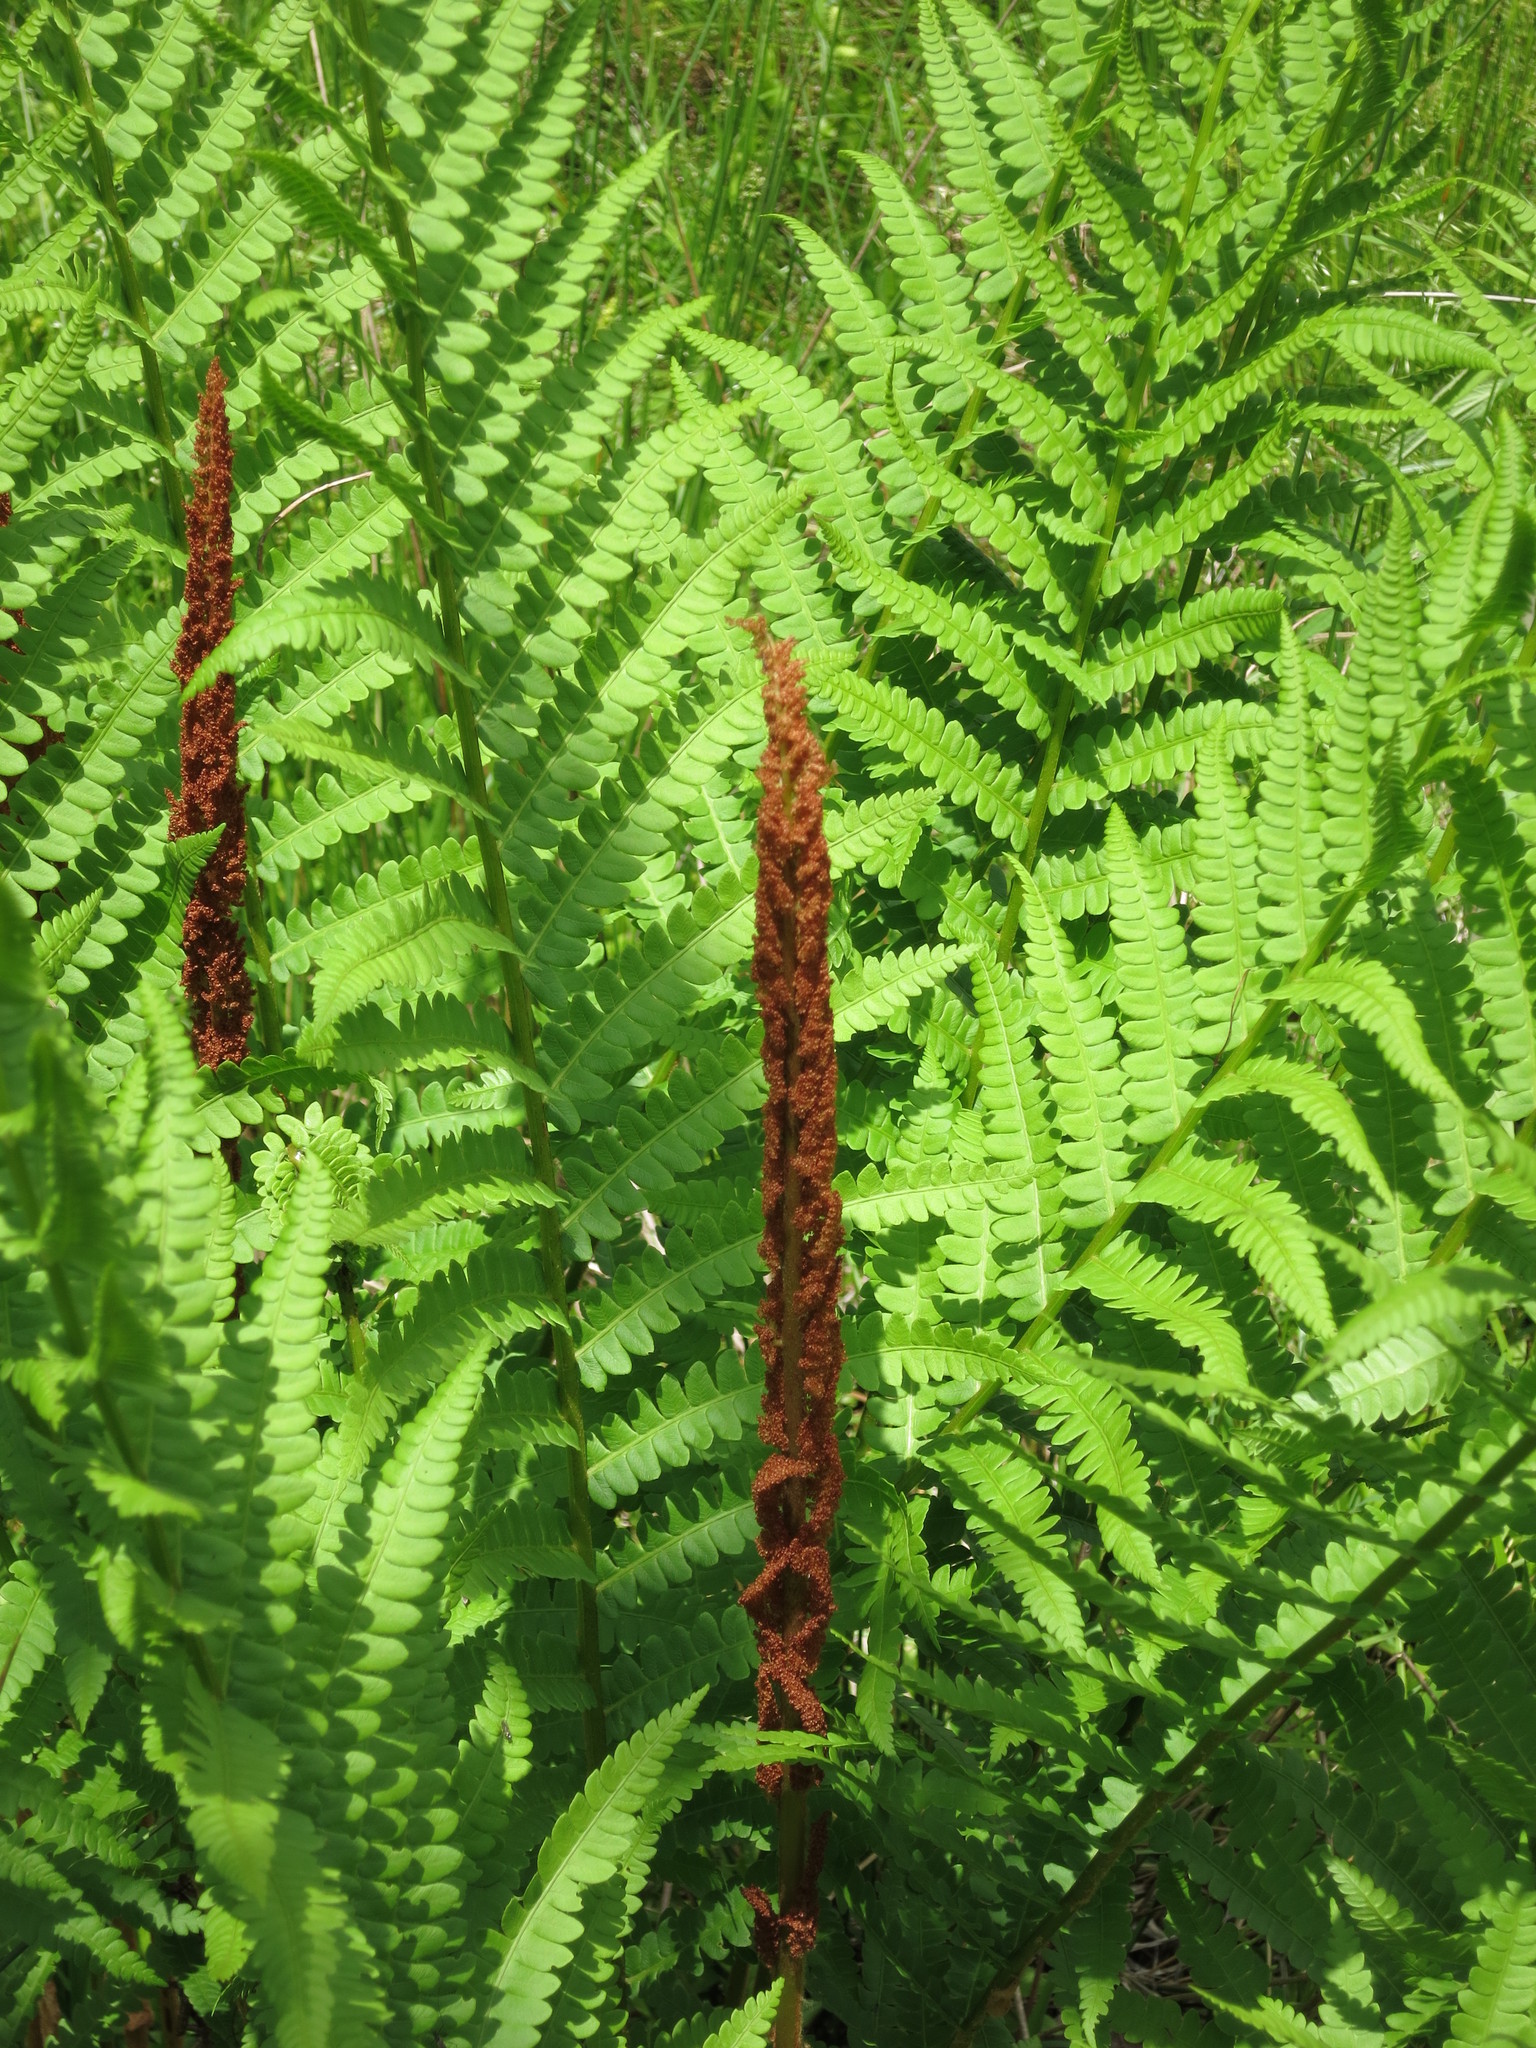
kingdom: Plantae
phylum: Tracheophyta
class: Polypodiopsida
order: Osmundales
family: Osmundaceae
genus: Osmundastrum
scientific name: Osmundastrum cinnamomeum
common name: Cinnamon fern
